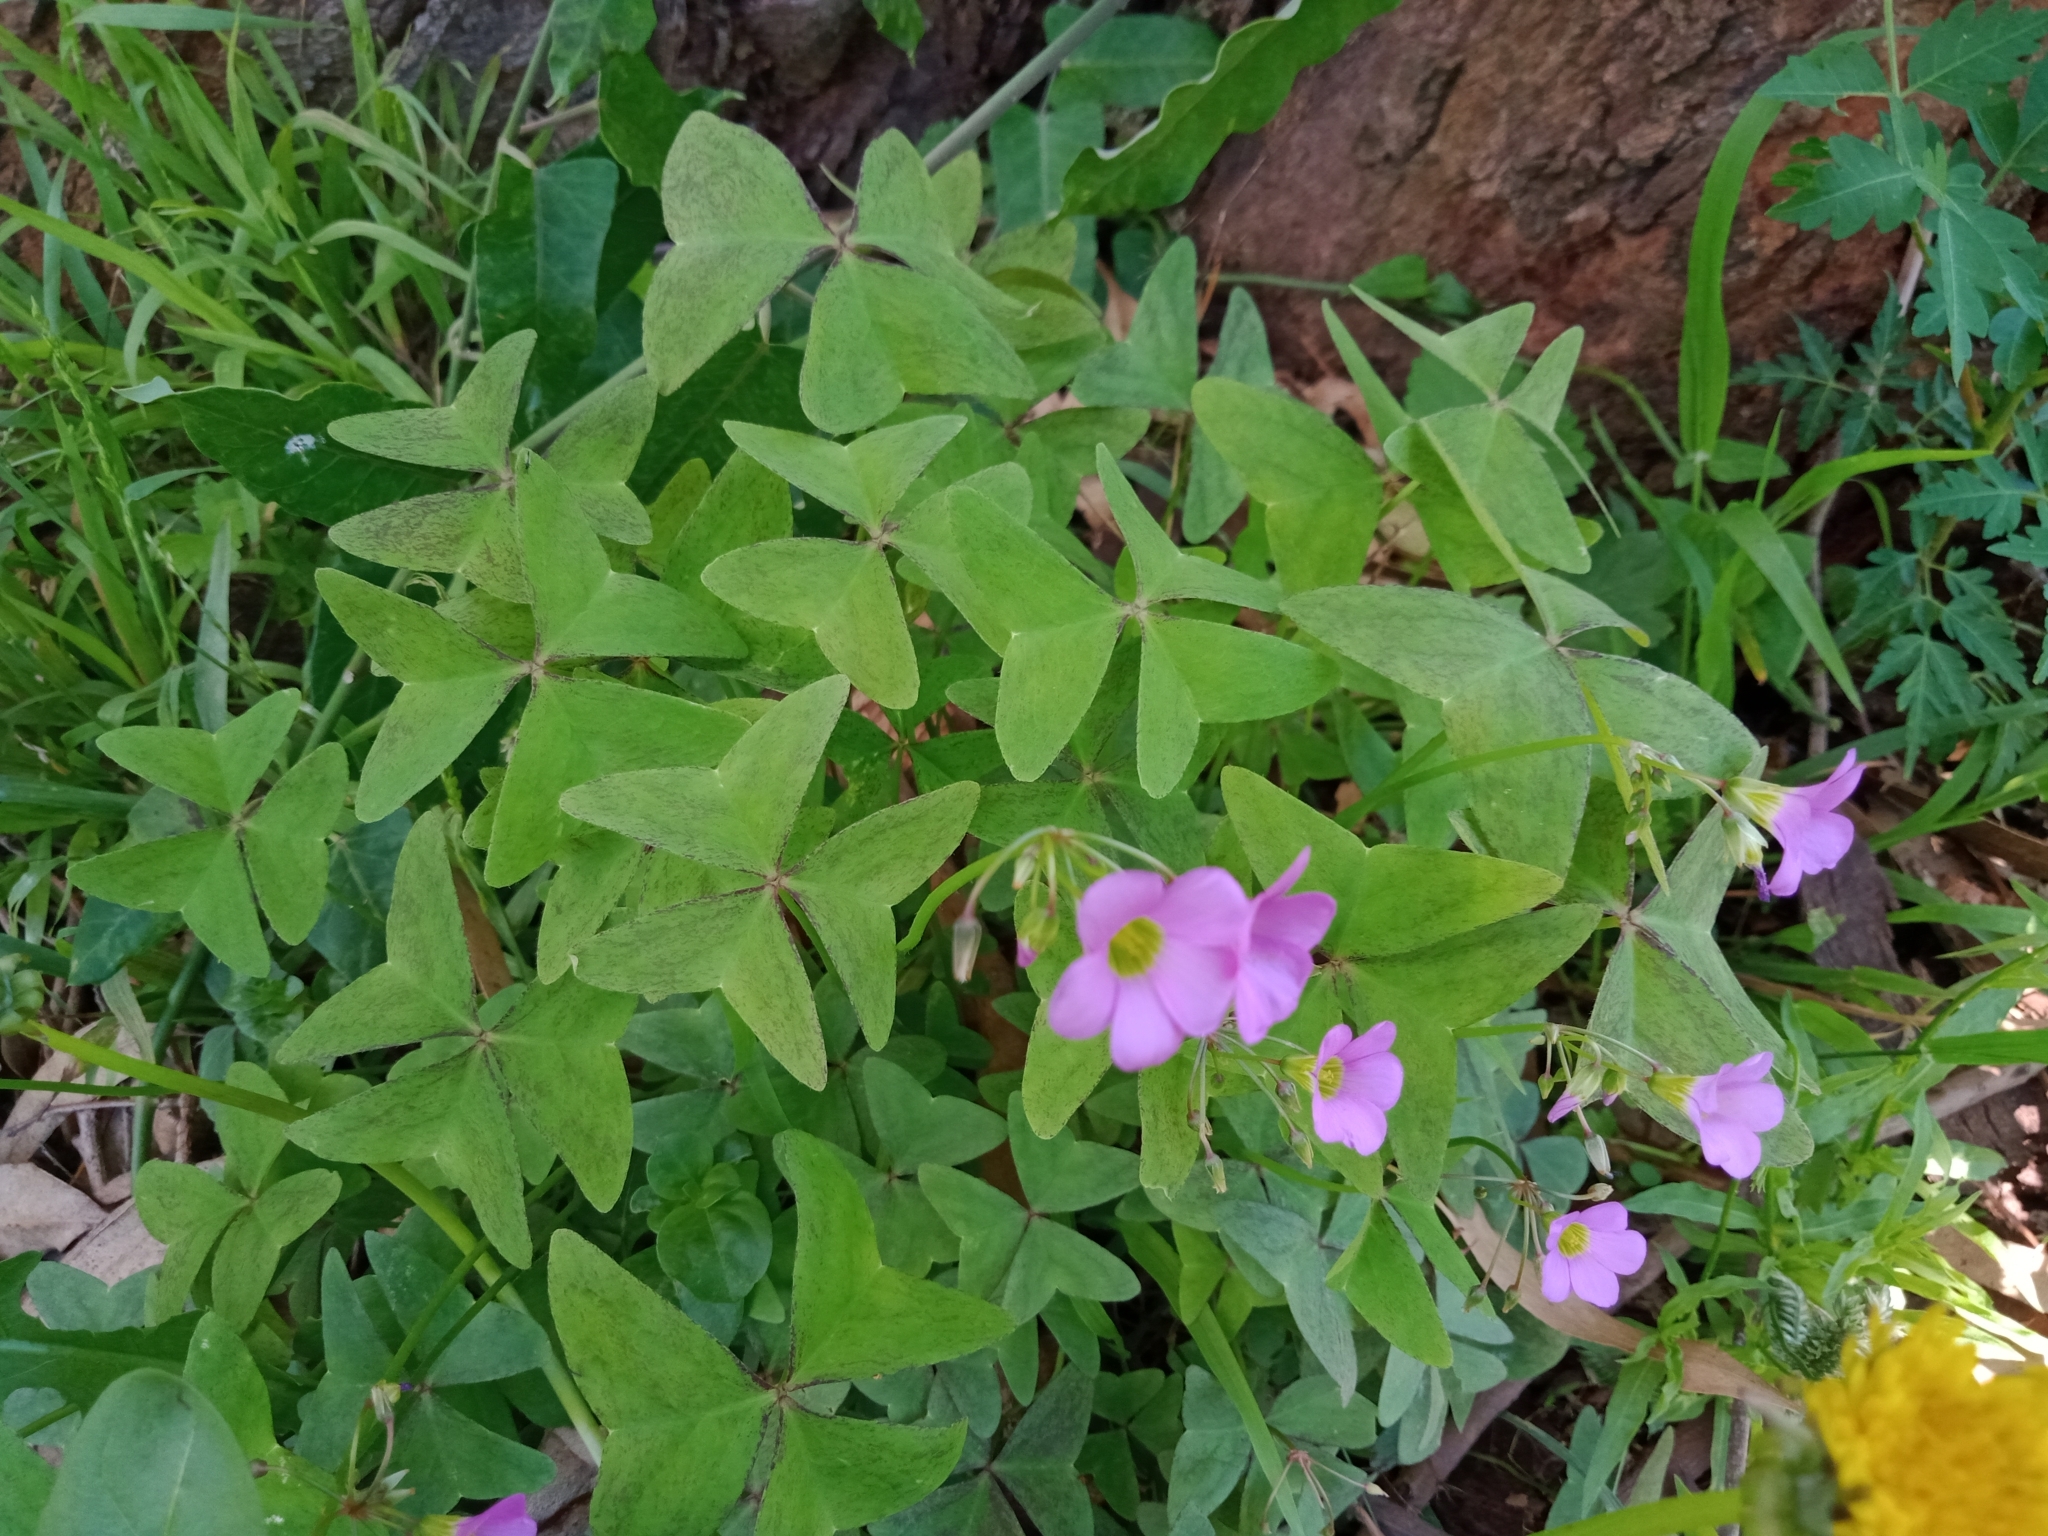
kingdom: Plantae
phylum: Tracheophyta
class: Magnoliopsida
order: Oxalidales
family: Oxalidaceae
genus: Oxalis
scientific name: Oxalis latifolia
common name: Garden pink-sorrel
